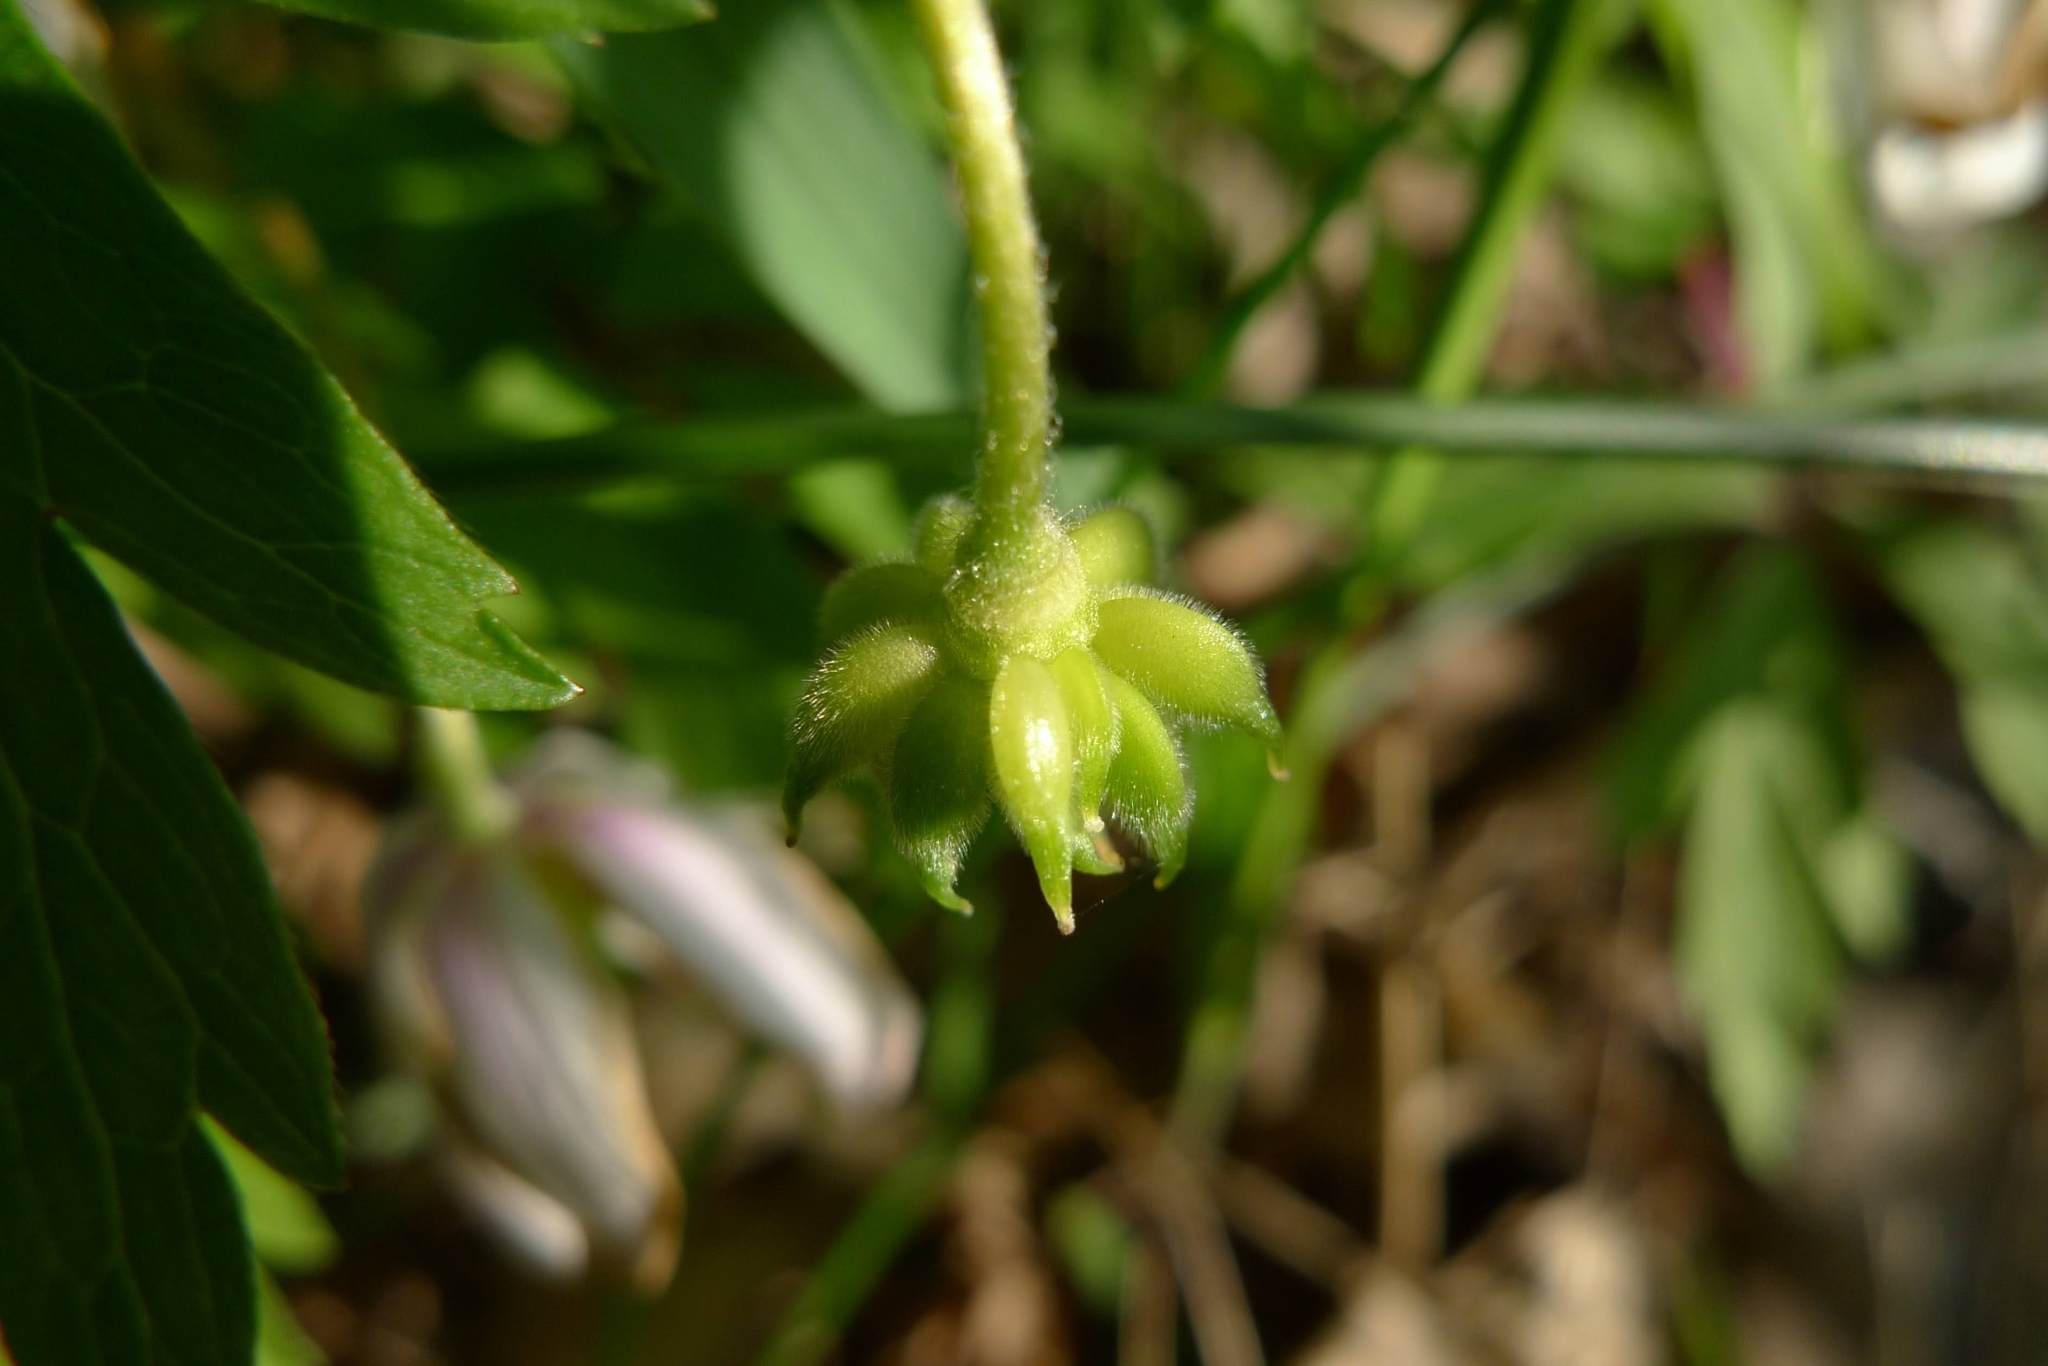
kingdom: Plantae
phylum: Tracheophyta
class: Magnoliopsida
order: Ranunculales
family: Ranunculaceae
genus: Anemone
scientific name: Anemone nemorosa
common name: Wood anemone
